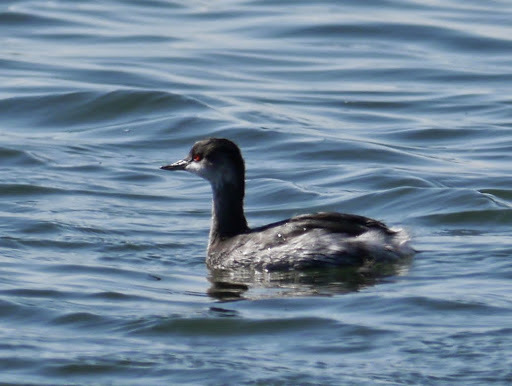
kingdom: Animalia
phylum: Chordata
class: Aves
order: Podicipediformes
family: Podicipedidae
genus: Podiceps
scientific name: Podiceps nigricollis
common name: Black-necked grebe
